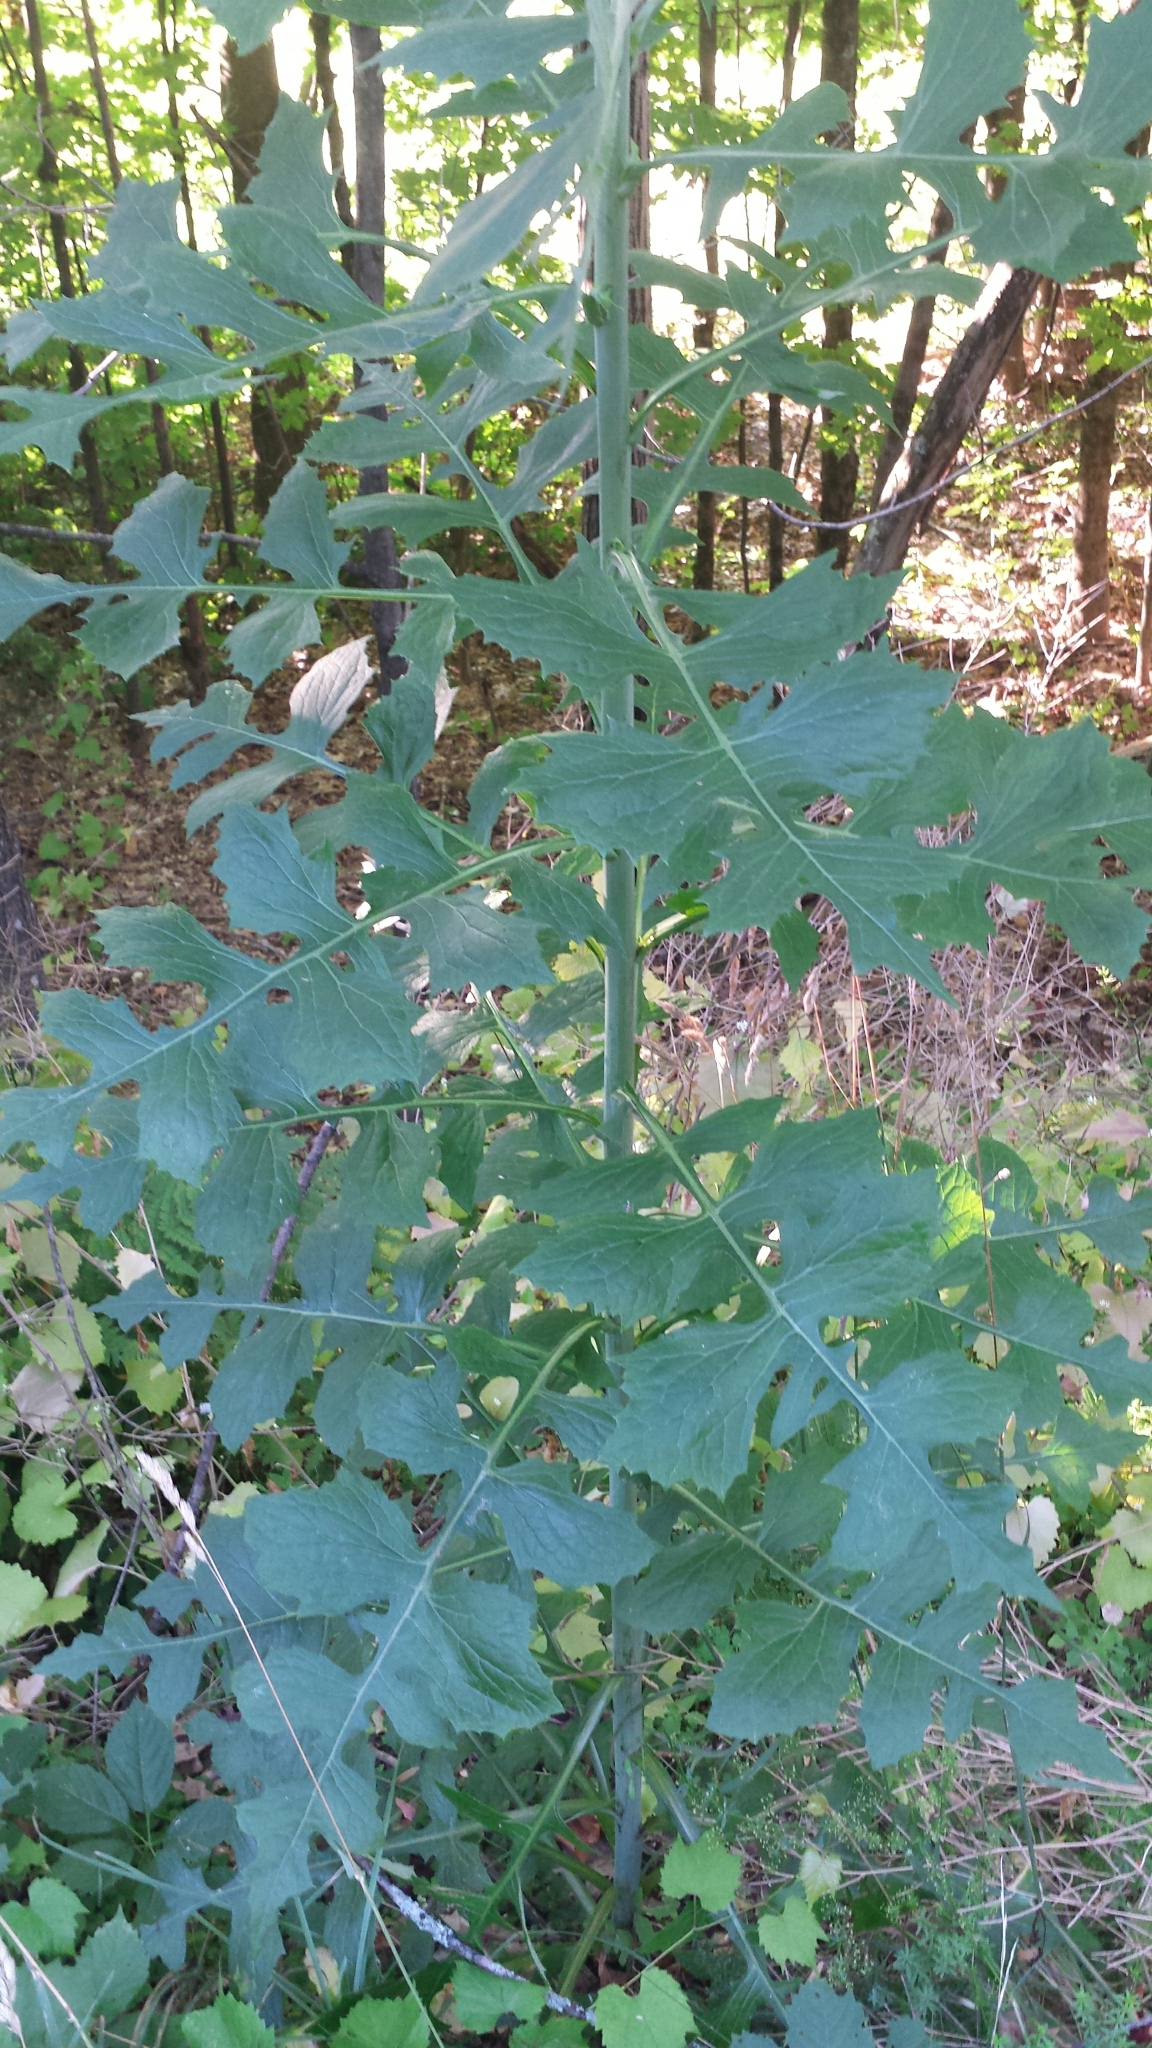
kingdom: Plantae
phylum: Tracheophyta
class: Magnoliopsida
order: Asterales
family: Asteraceae
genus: Lactuca
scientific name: Lactuca biennis
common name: Blue wood lettuce
